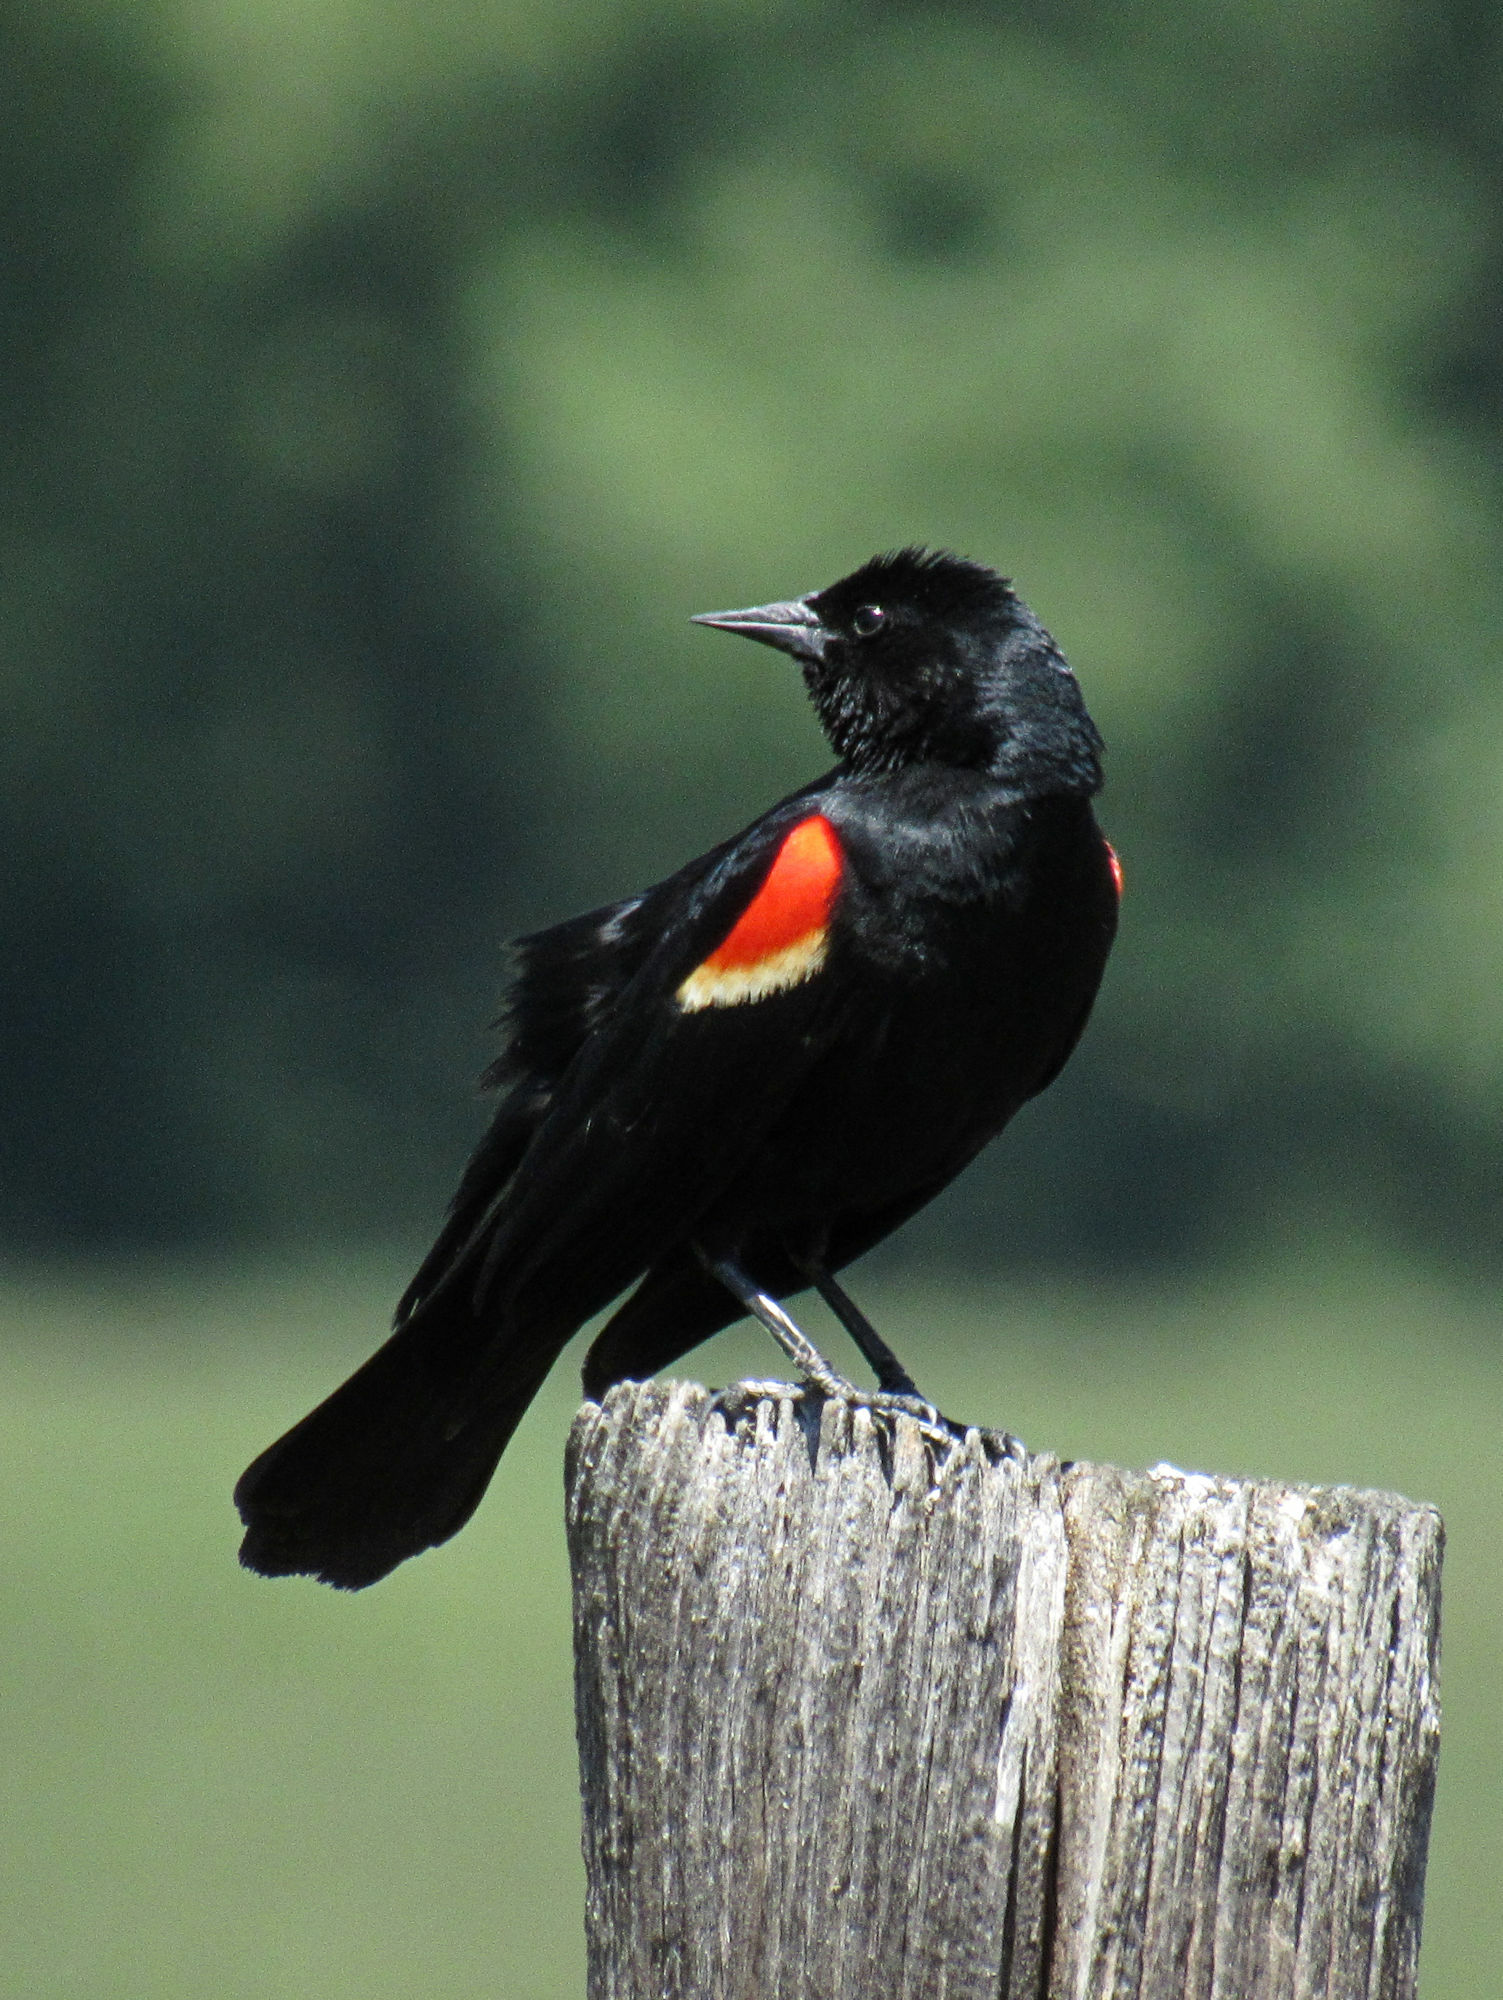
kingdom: Animalia
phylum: Chordata
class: Aves
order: Passeriformes
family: Icteridae
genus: Agelaius
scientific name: Agelaius phoeniceus
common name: Red-winged blackbird
